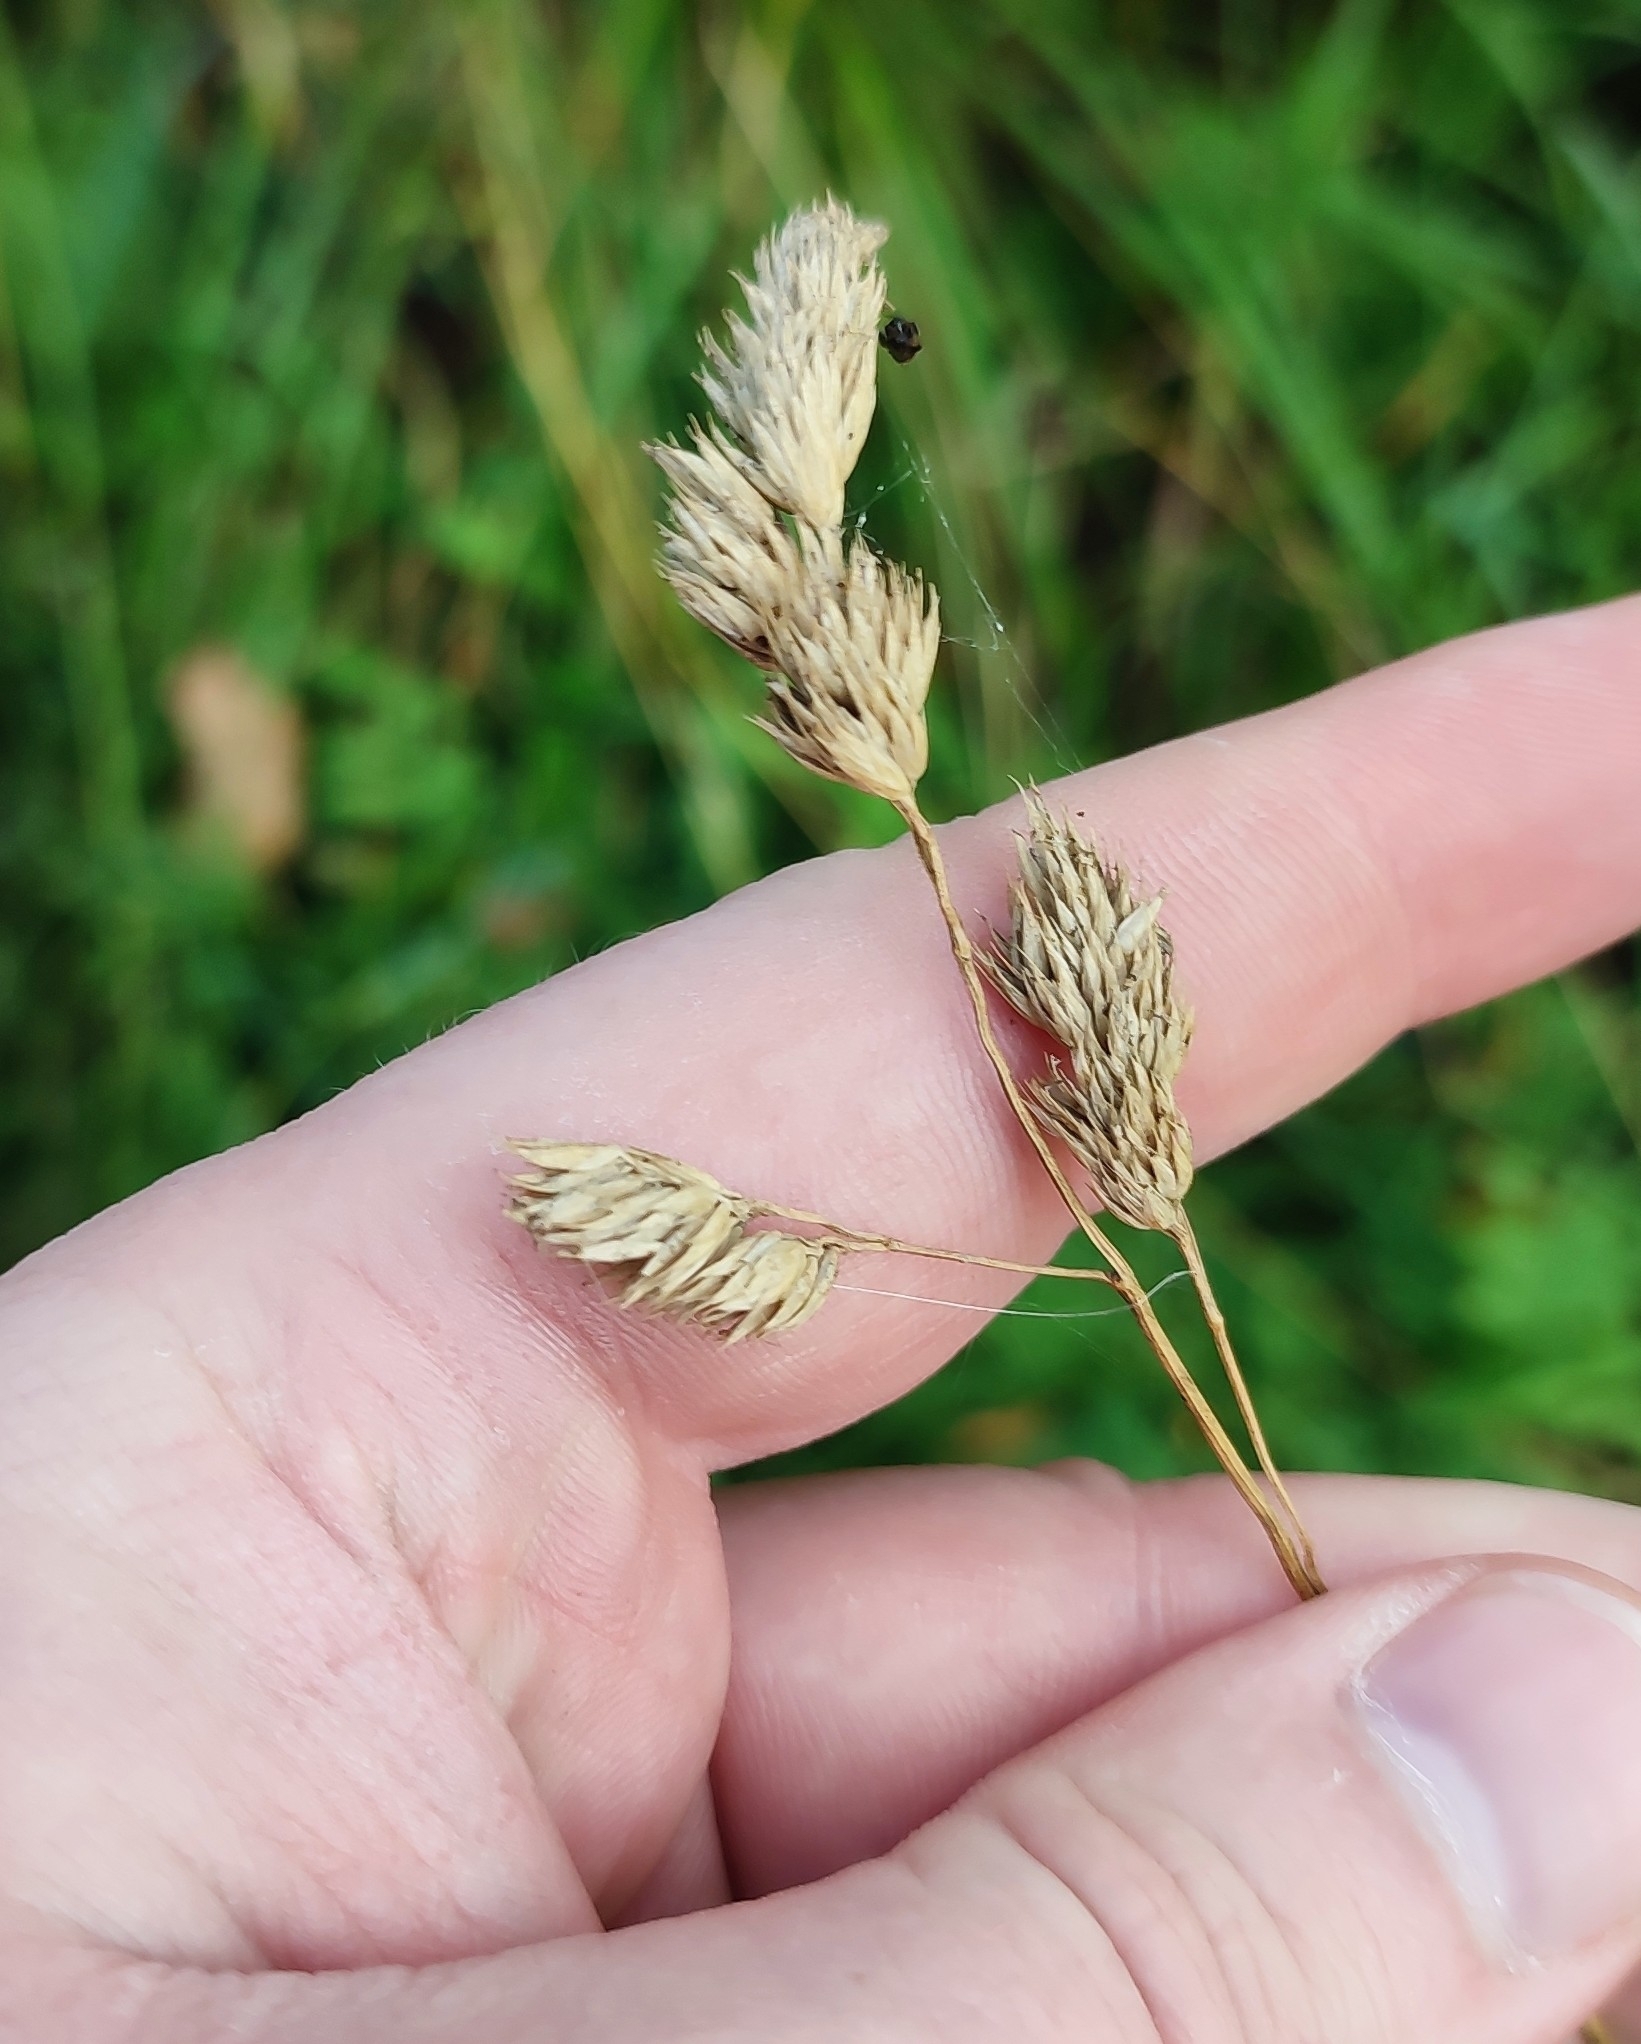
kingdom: Plantae
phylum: Tracheophyta
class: Liliopsida
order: Poales
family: Poaceae
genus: Dactylis
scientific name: Dactylis glomerata
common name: Orchardgrass
